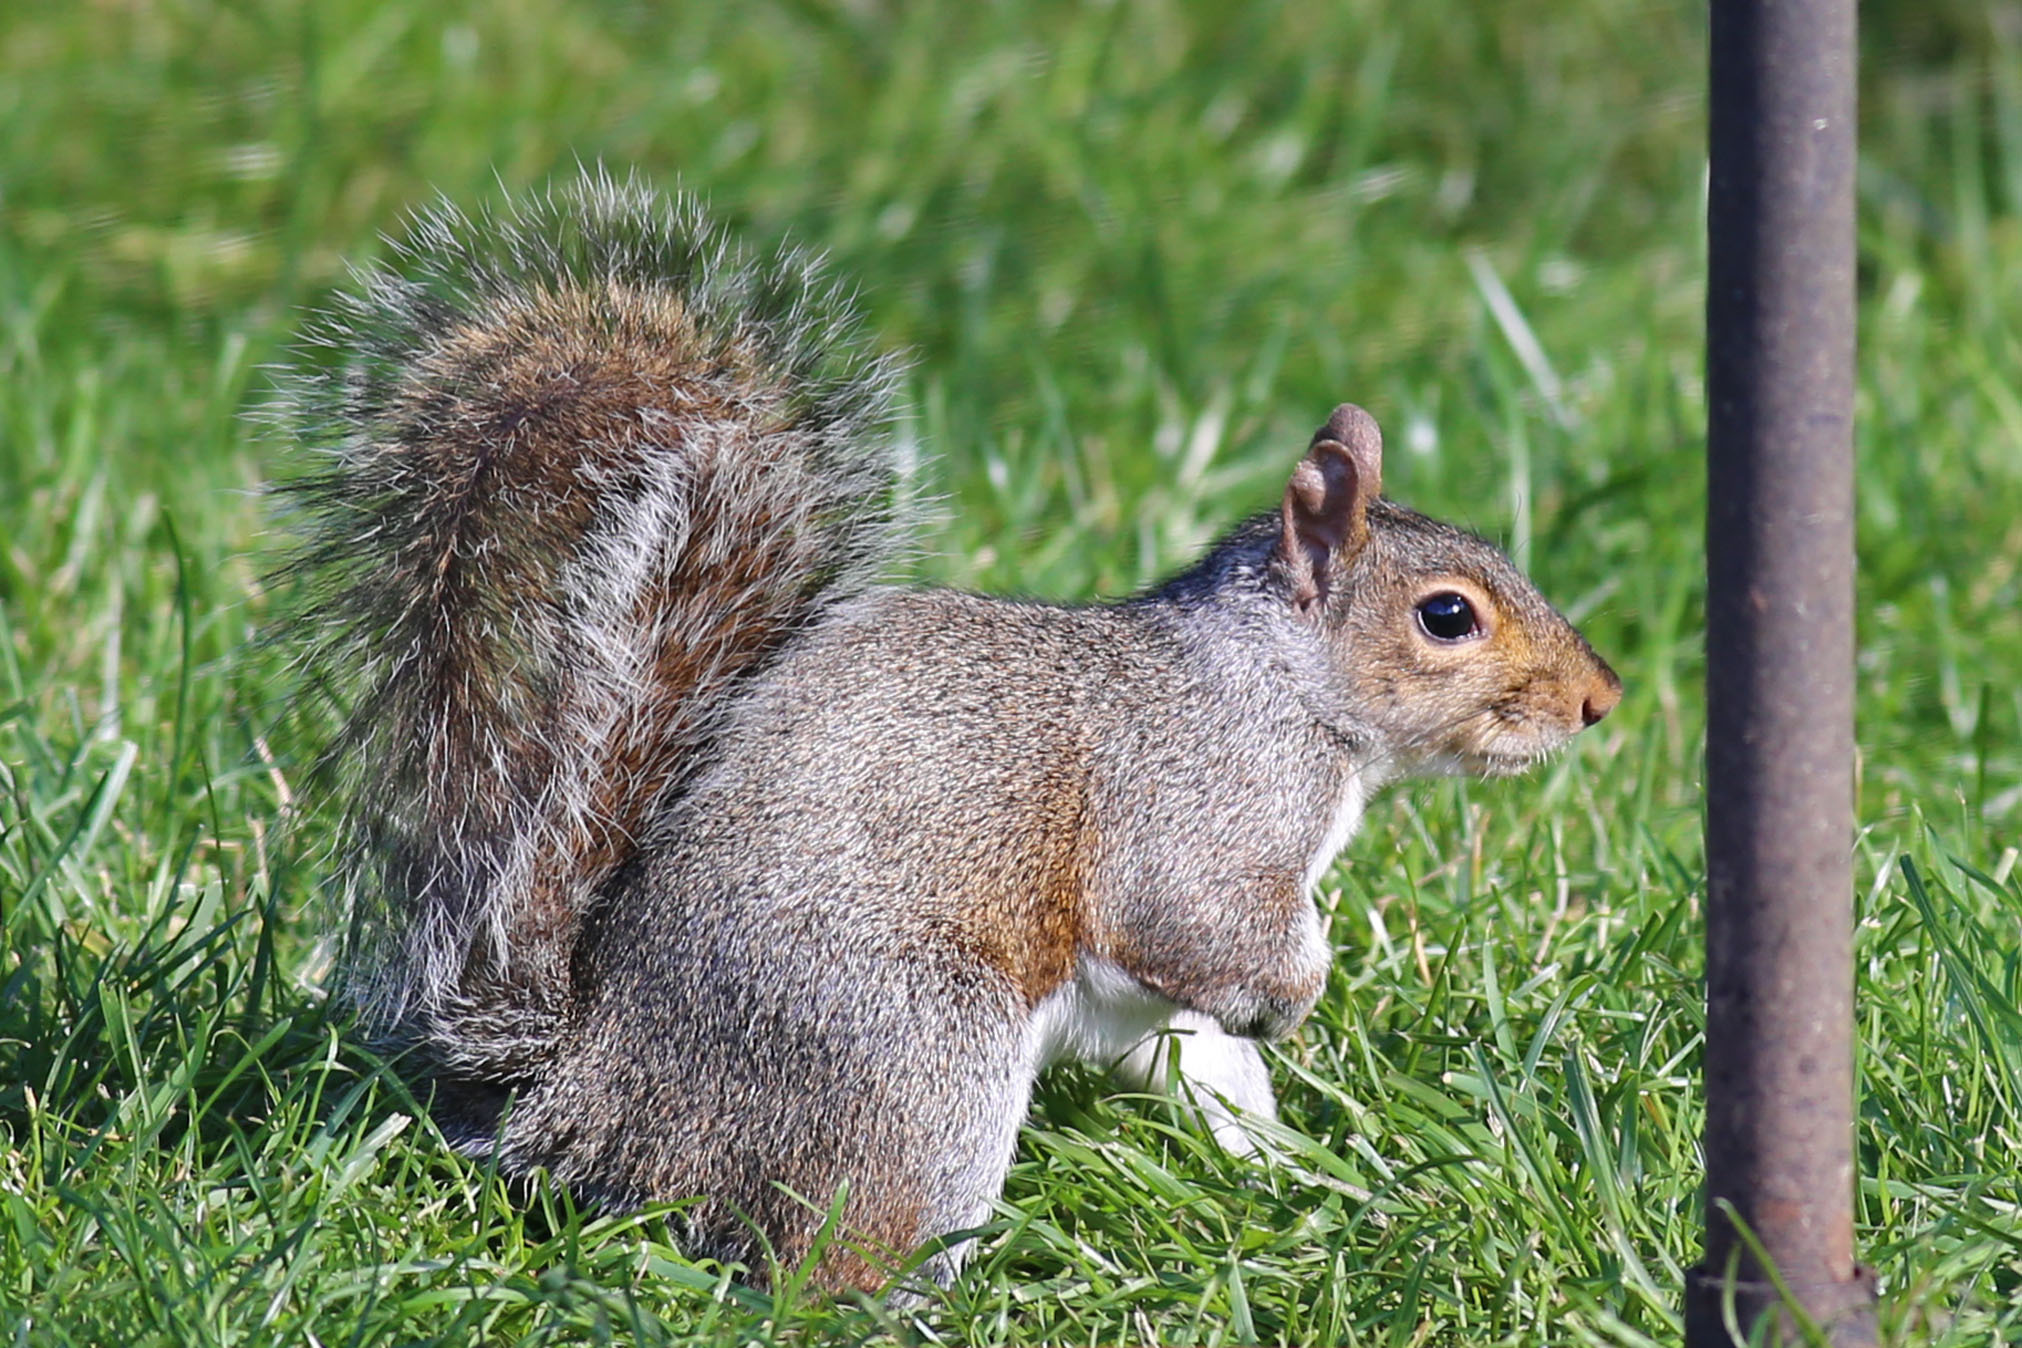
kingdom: Animalia
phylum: Chordata
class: Mammalia
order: Rodentia
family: Sciuridae
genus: Sciurus
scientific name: Sciurus carolinensis
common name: Eastern gray squirrel
